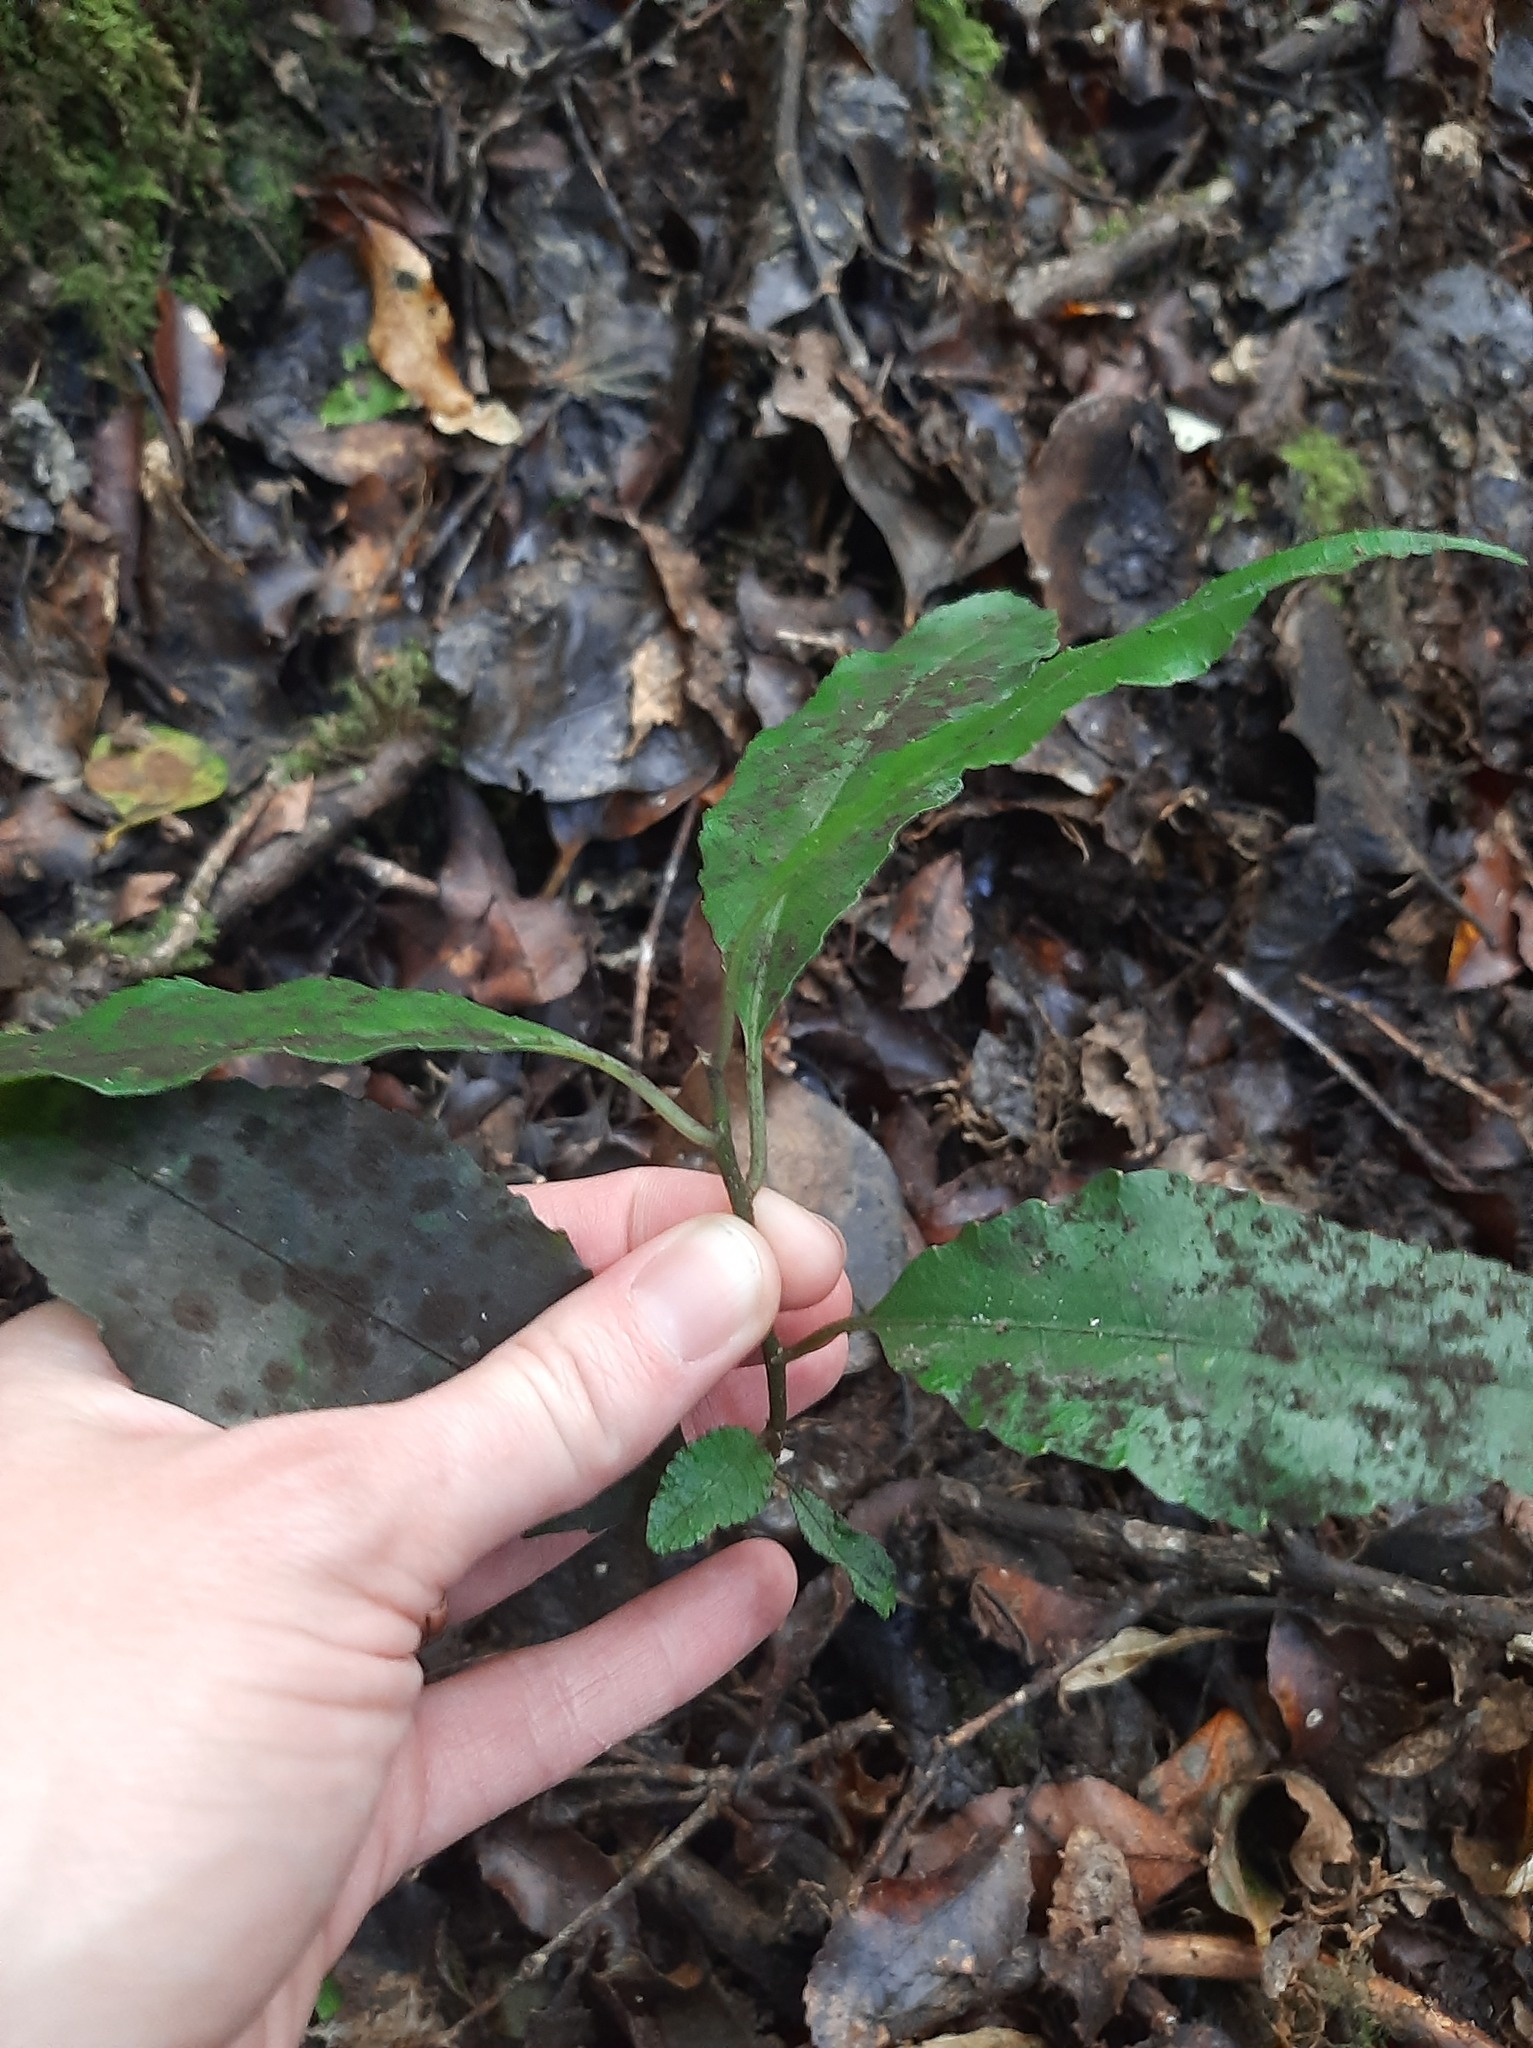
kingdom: Plantae
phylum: Tracheophyta
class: Magnoliopsida
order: Malpighiales
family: Violaceae
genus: Melicytus
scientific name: Melicytus ramiflorus
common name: Mahoe
